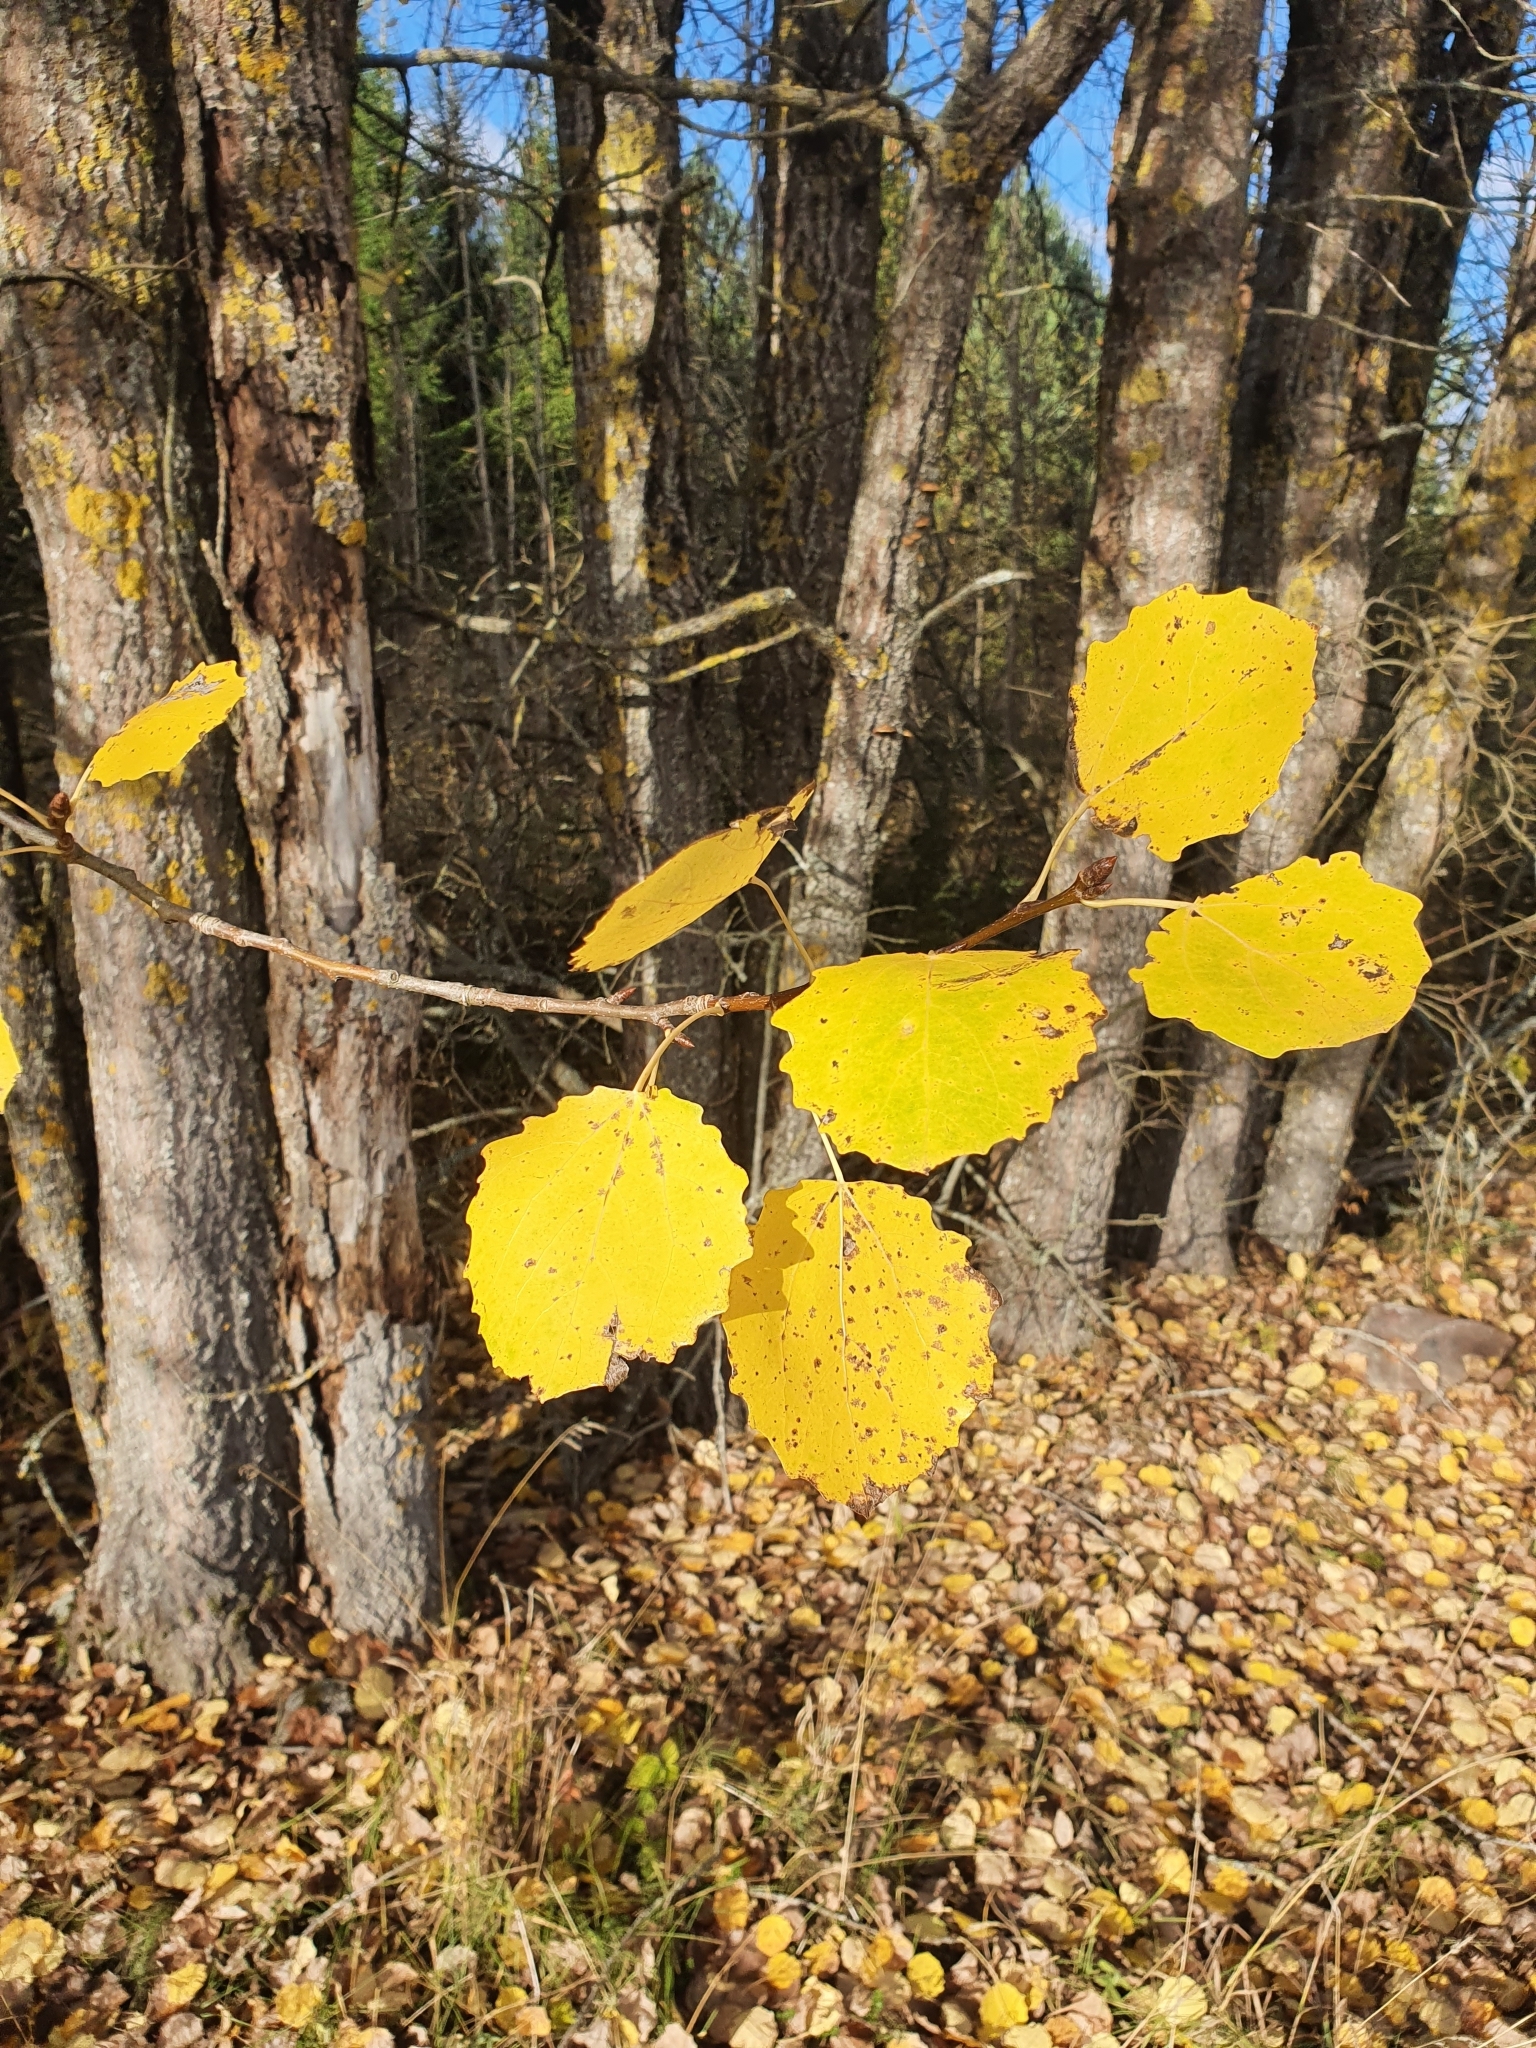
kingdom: Plantae
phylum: Tracheophyta
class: Magnoliopsida
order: Malpighiales
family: Salicaceae
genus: Populus
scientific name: Populus tremula
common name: European aspen
